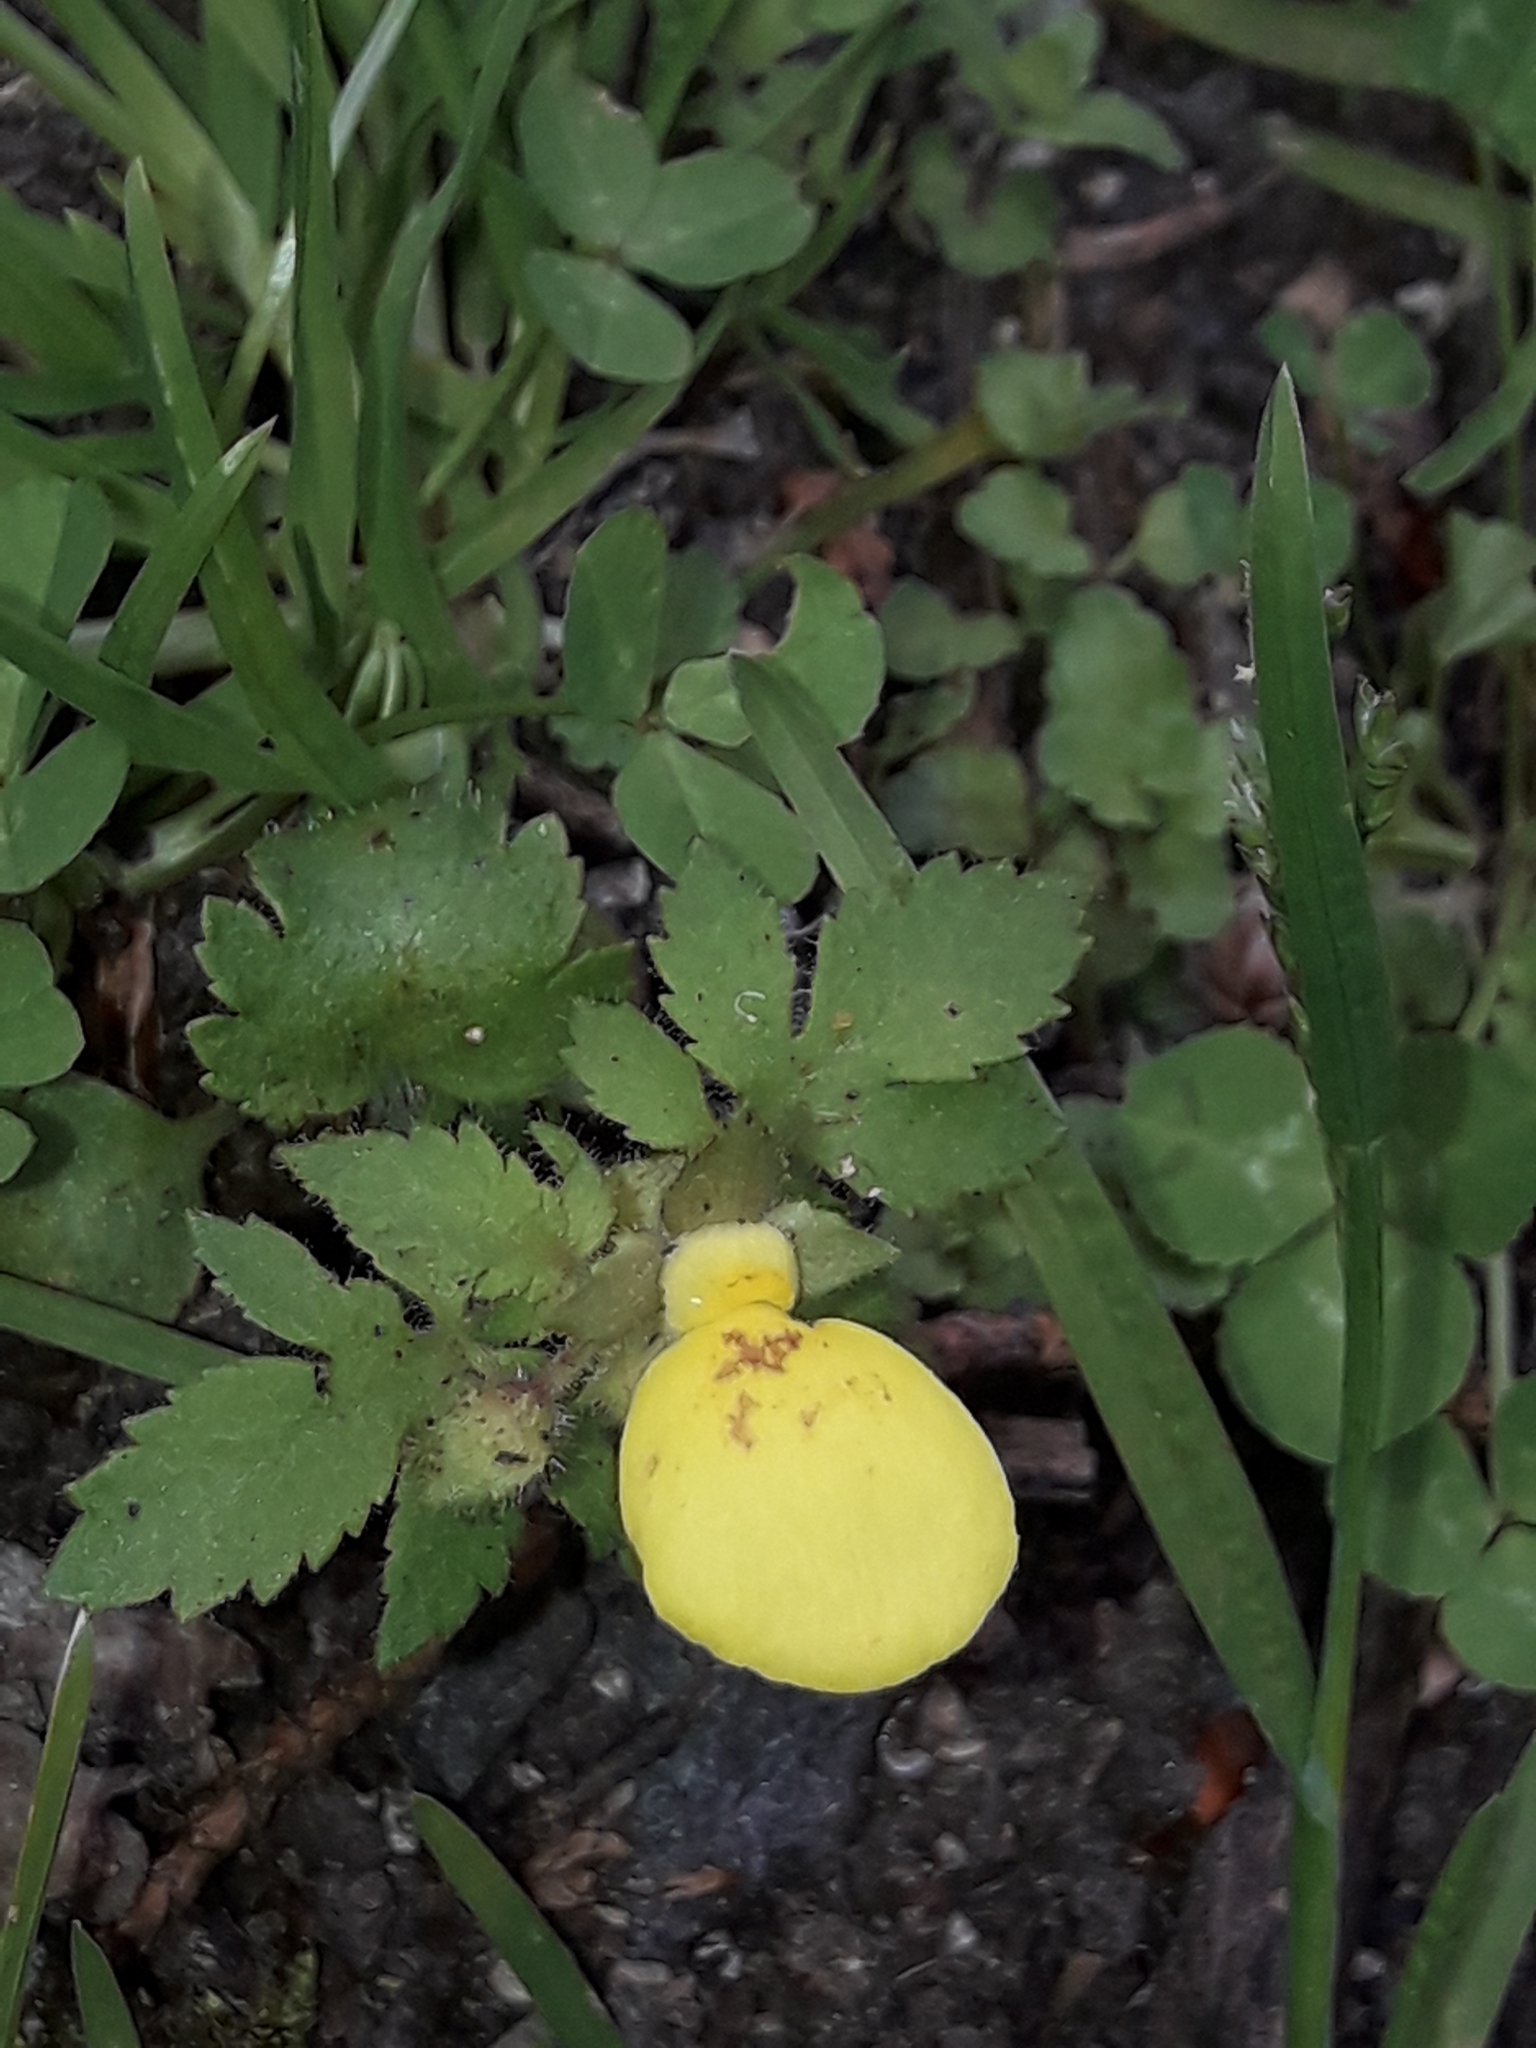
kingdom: Plantae
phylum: Tracheophyta
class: Magnoliopsida
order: Lamiales
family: Calceolariaceae
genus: Calceolaria
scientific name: Calceolaria tripartita
